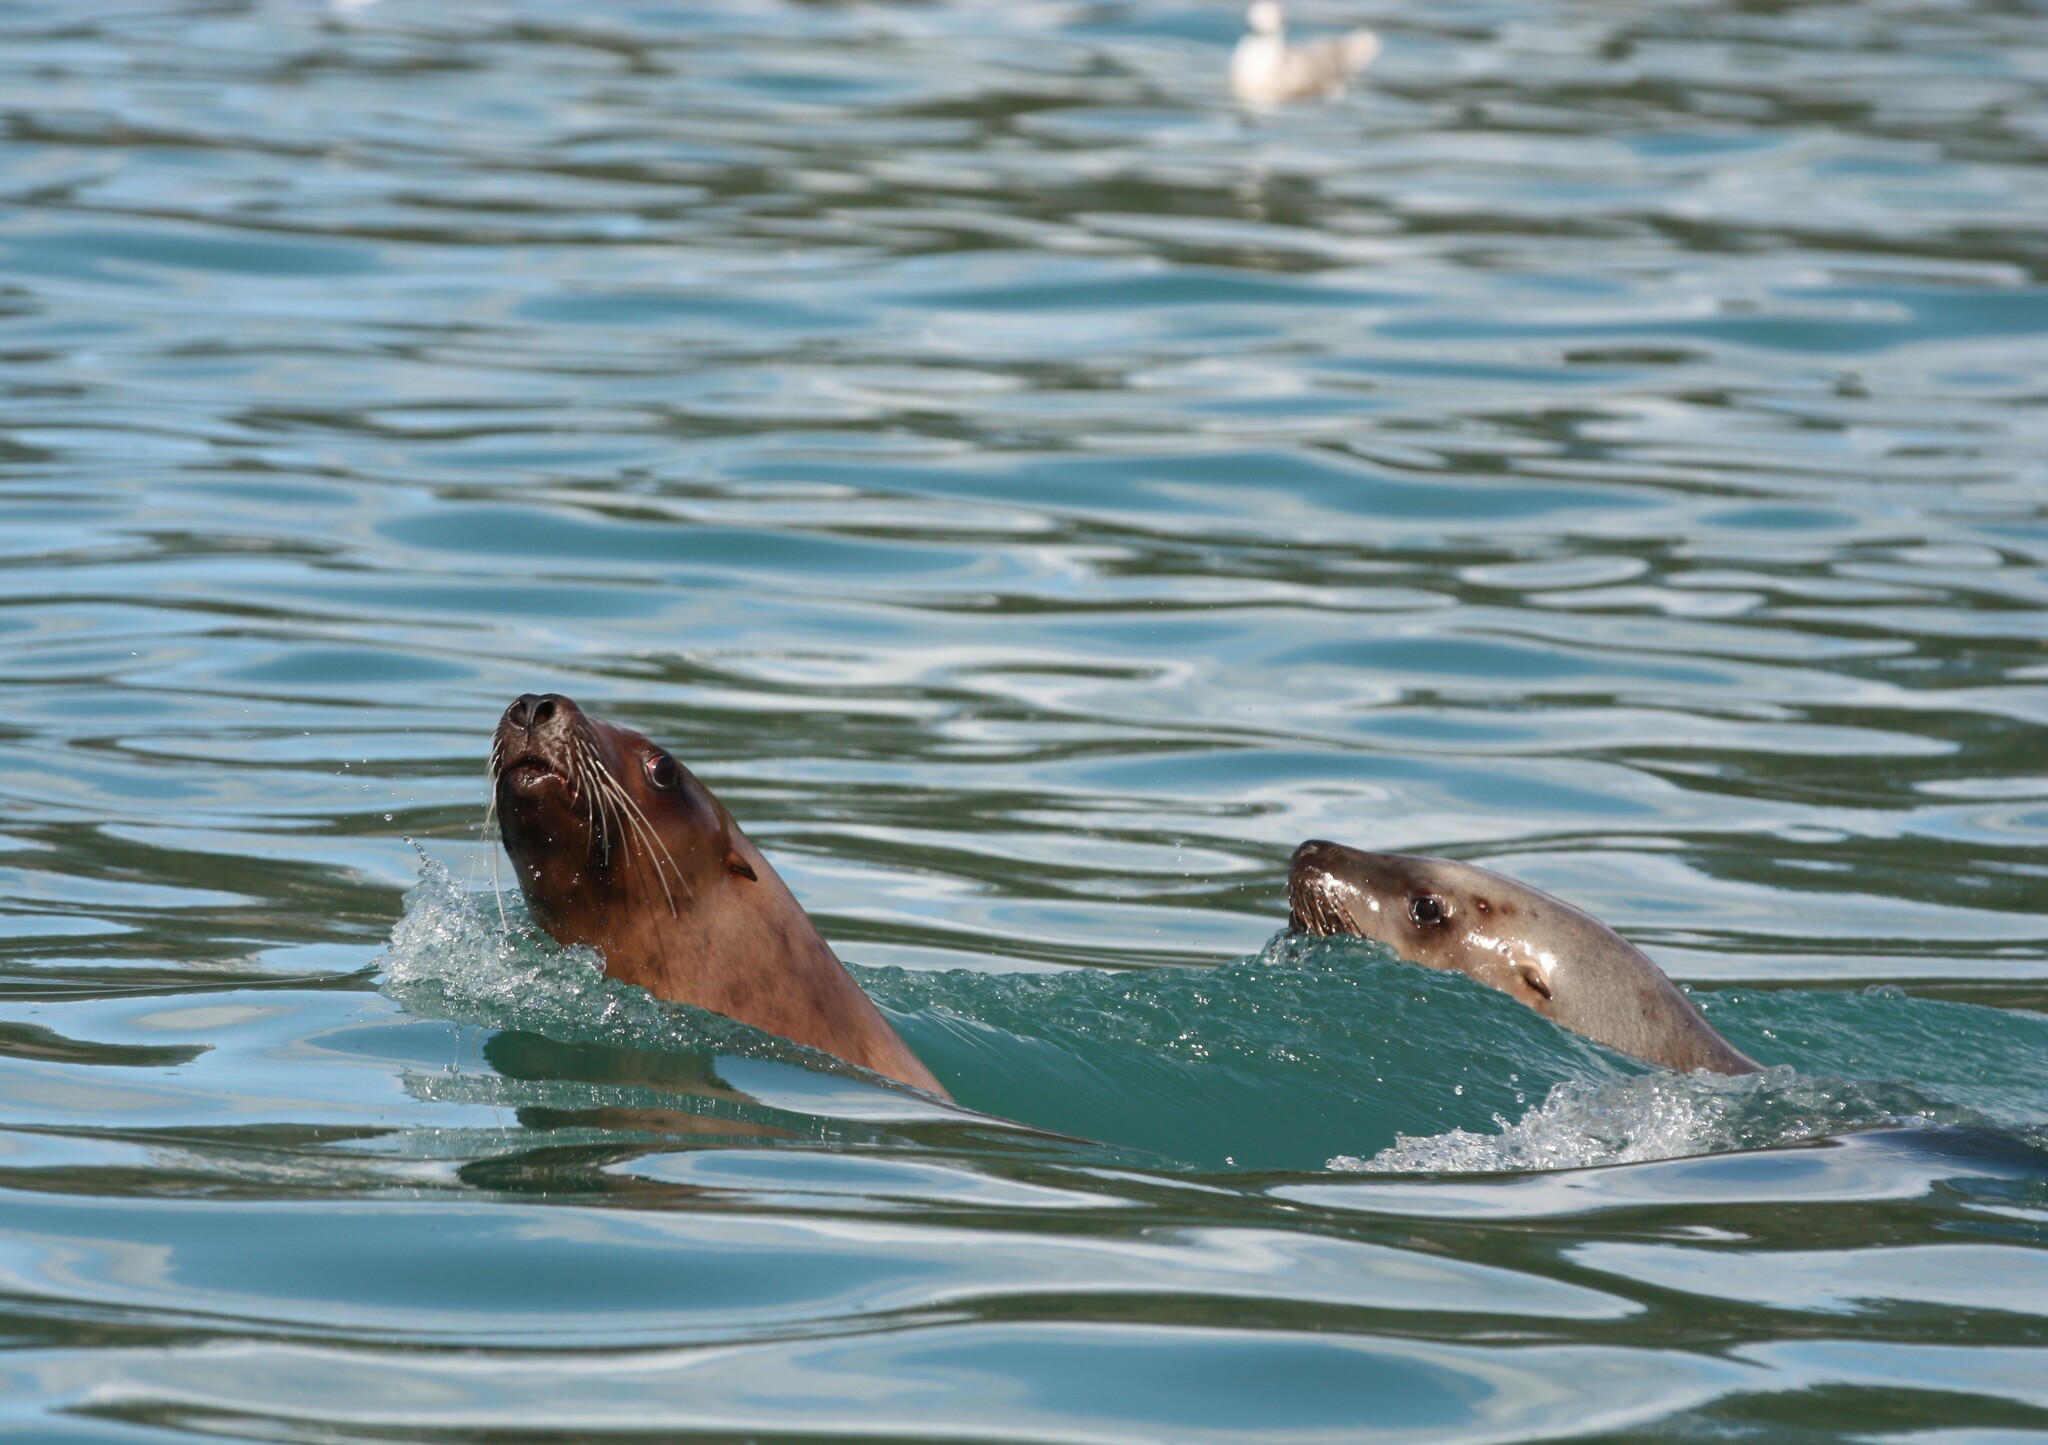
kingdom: Animalia
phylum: Chordata
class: Mammalia
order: Carnivora
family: Otariidae
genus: Eumetopias
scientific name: Eumetopias jubatus
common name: Steller sea lion
